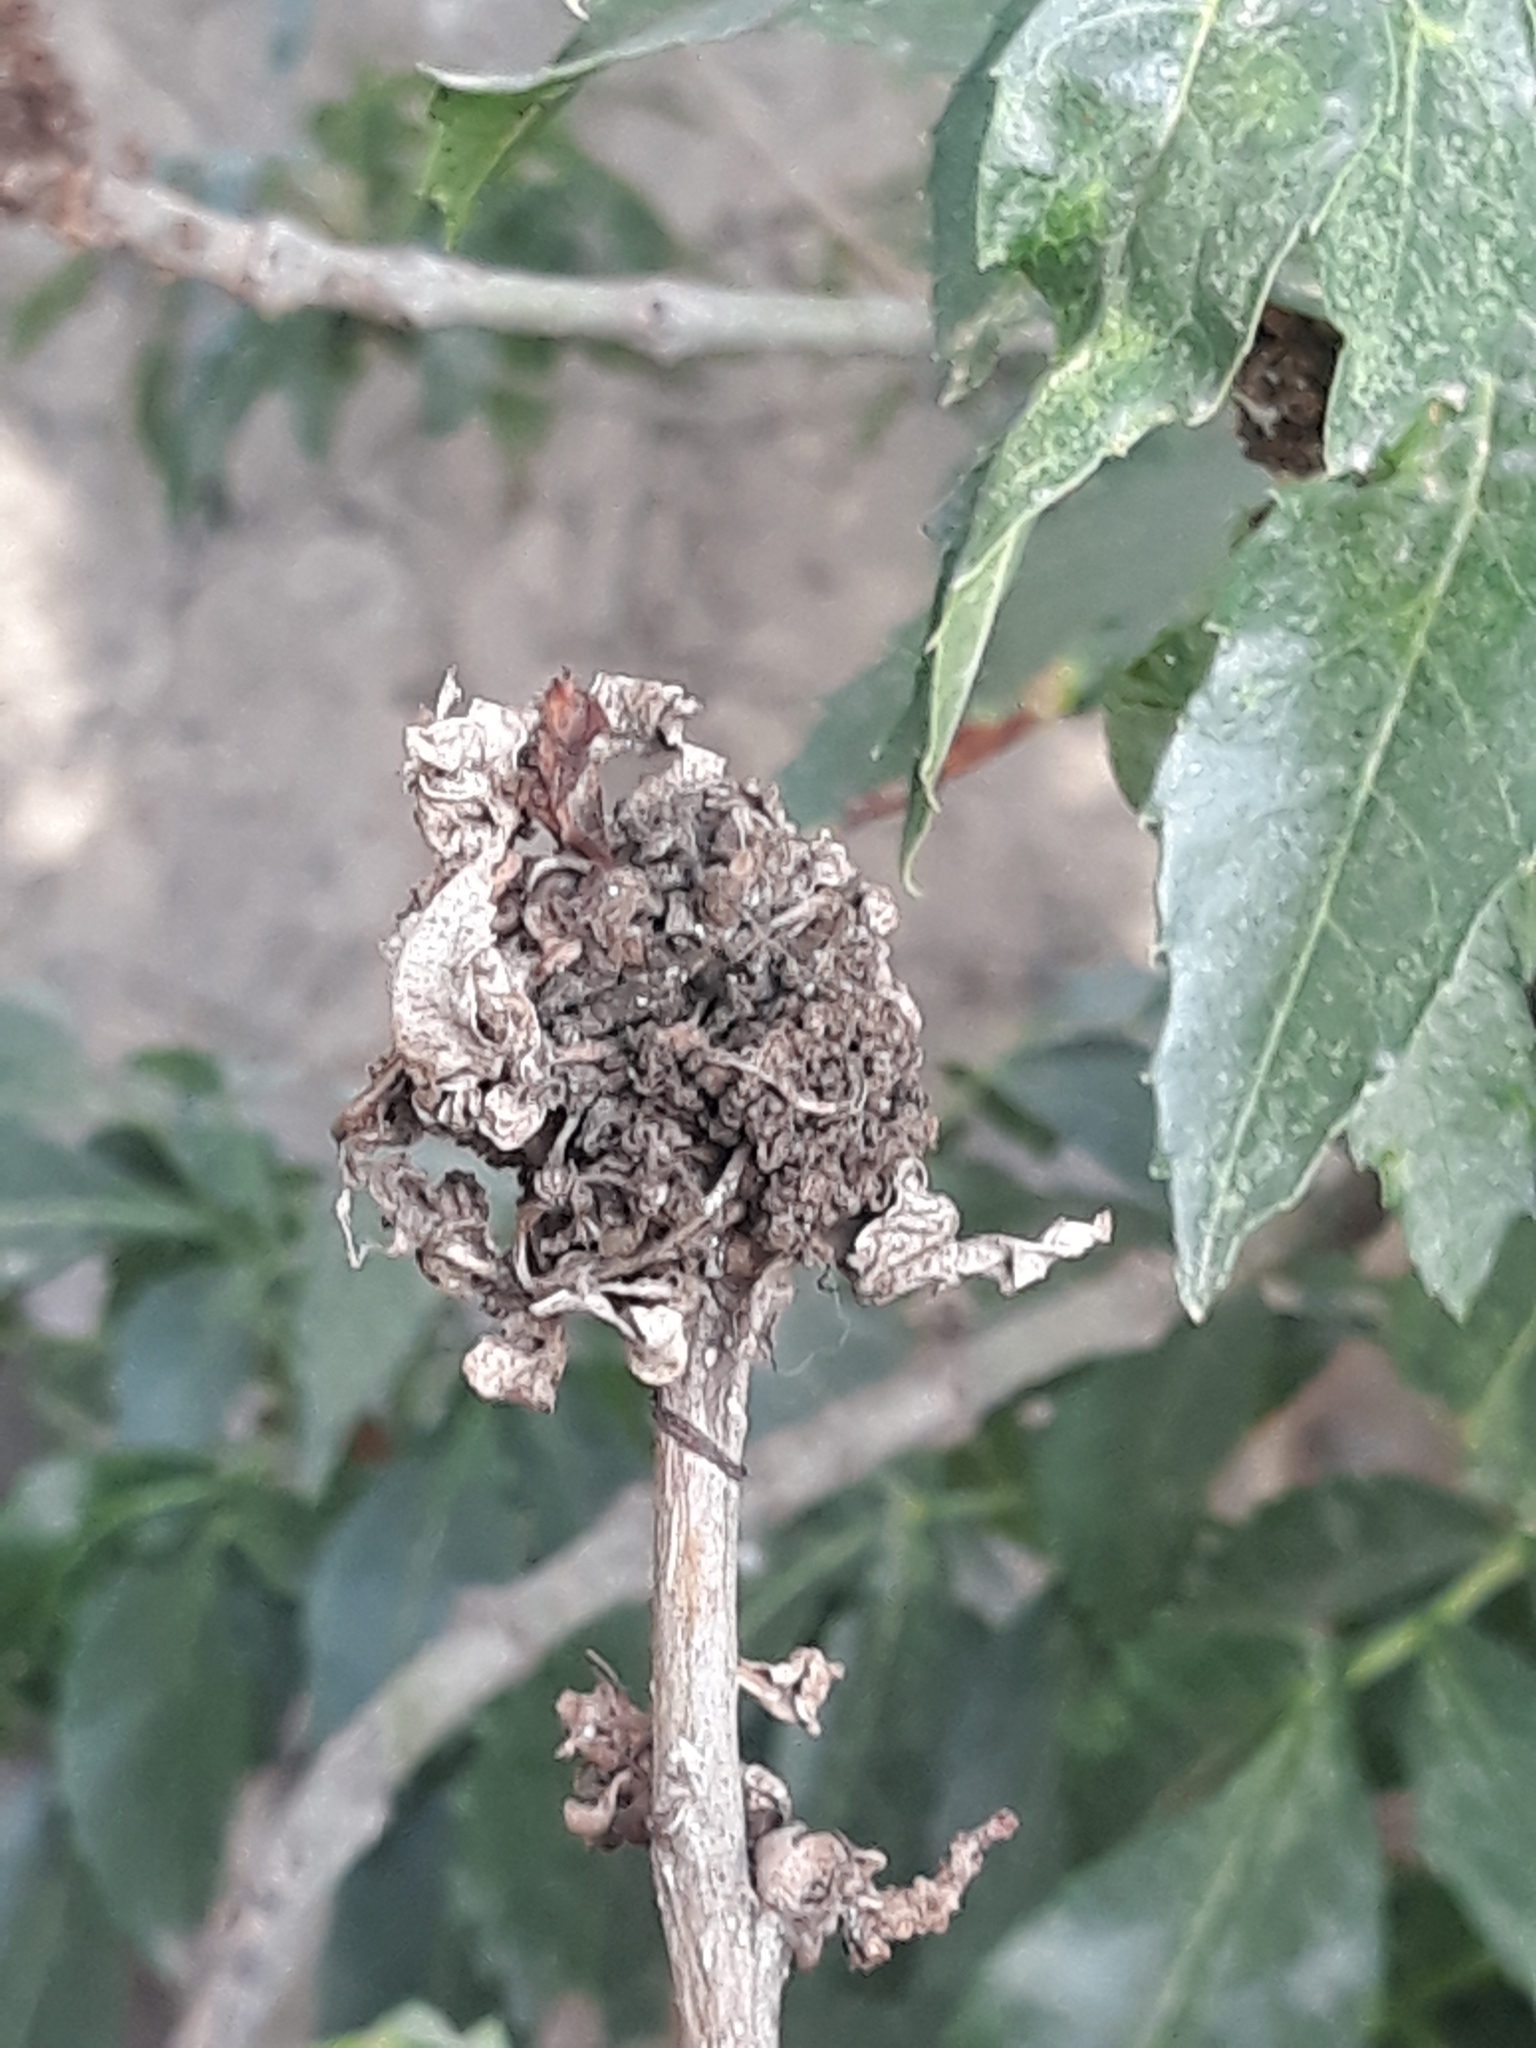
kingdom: Plantae
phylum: Tracheophyta
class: Magnoliopsida
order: Lamiales
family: Oleaceae
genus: Fraxinus
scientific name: Fraxinus angustifolia
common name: Narrow-leafed ash
